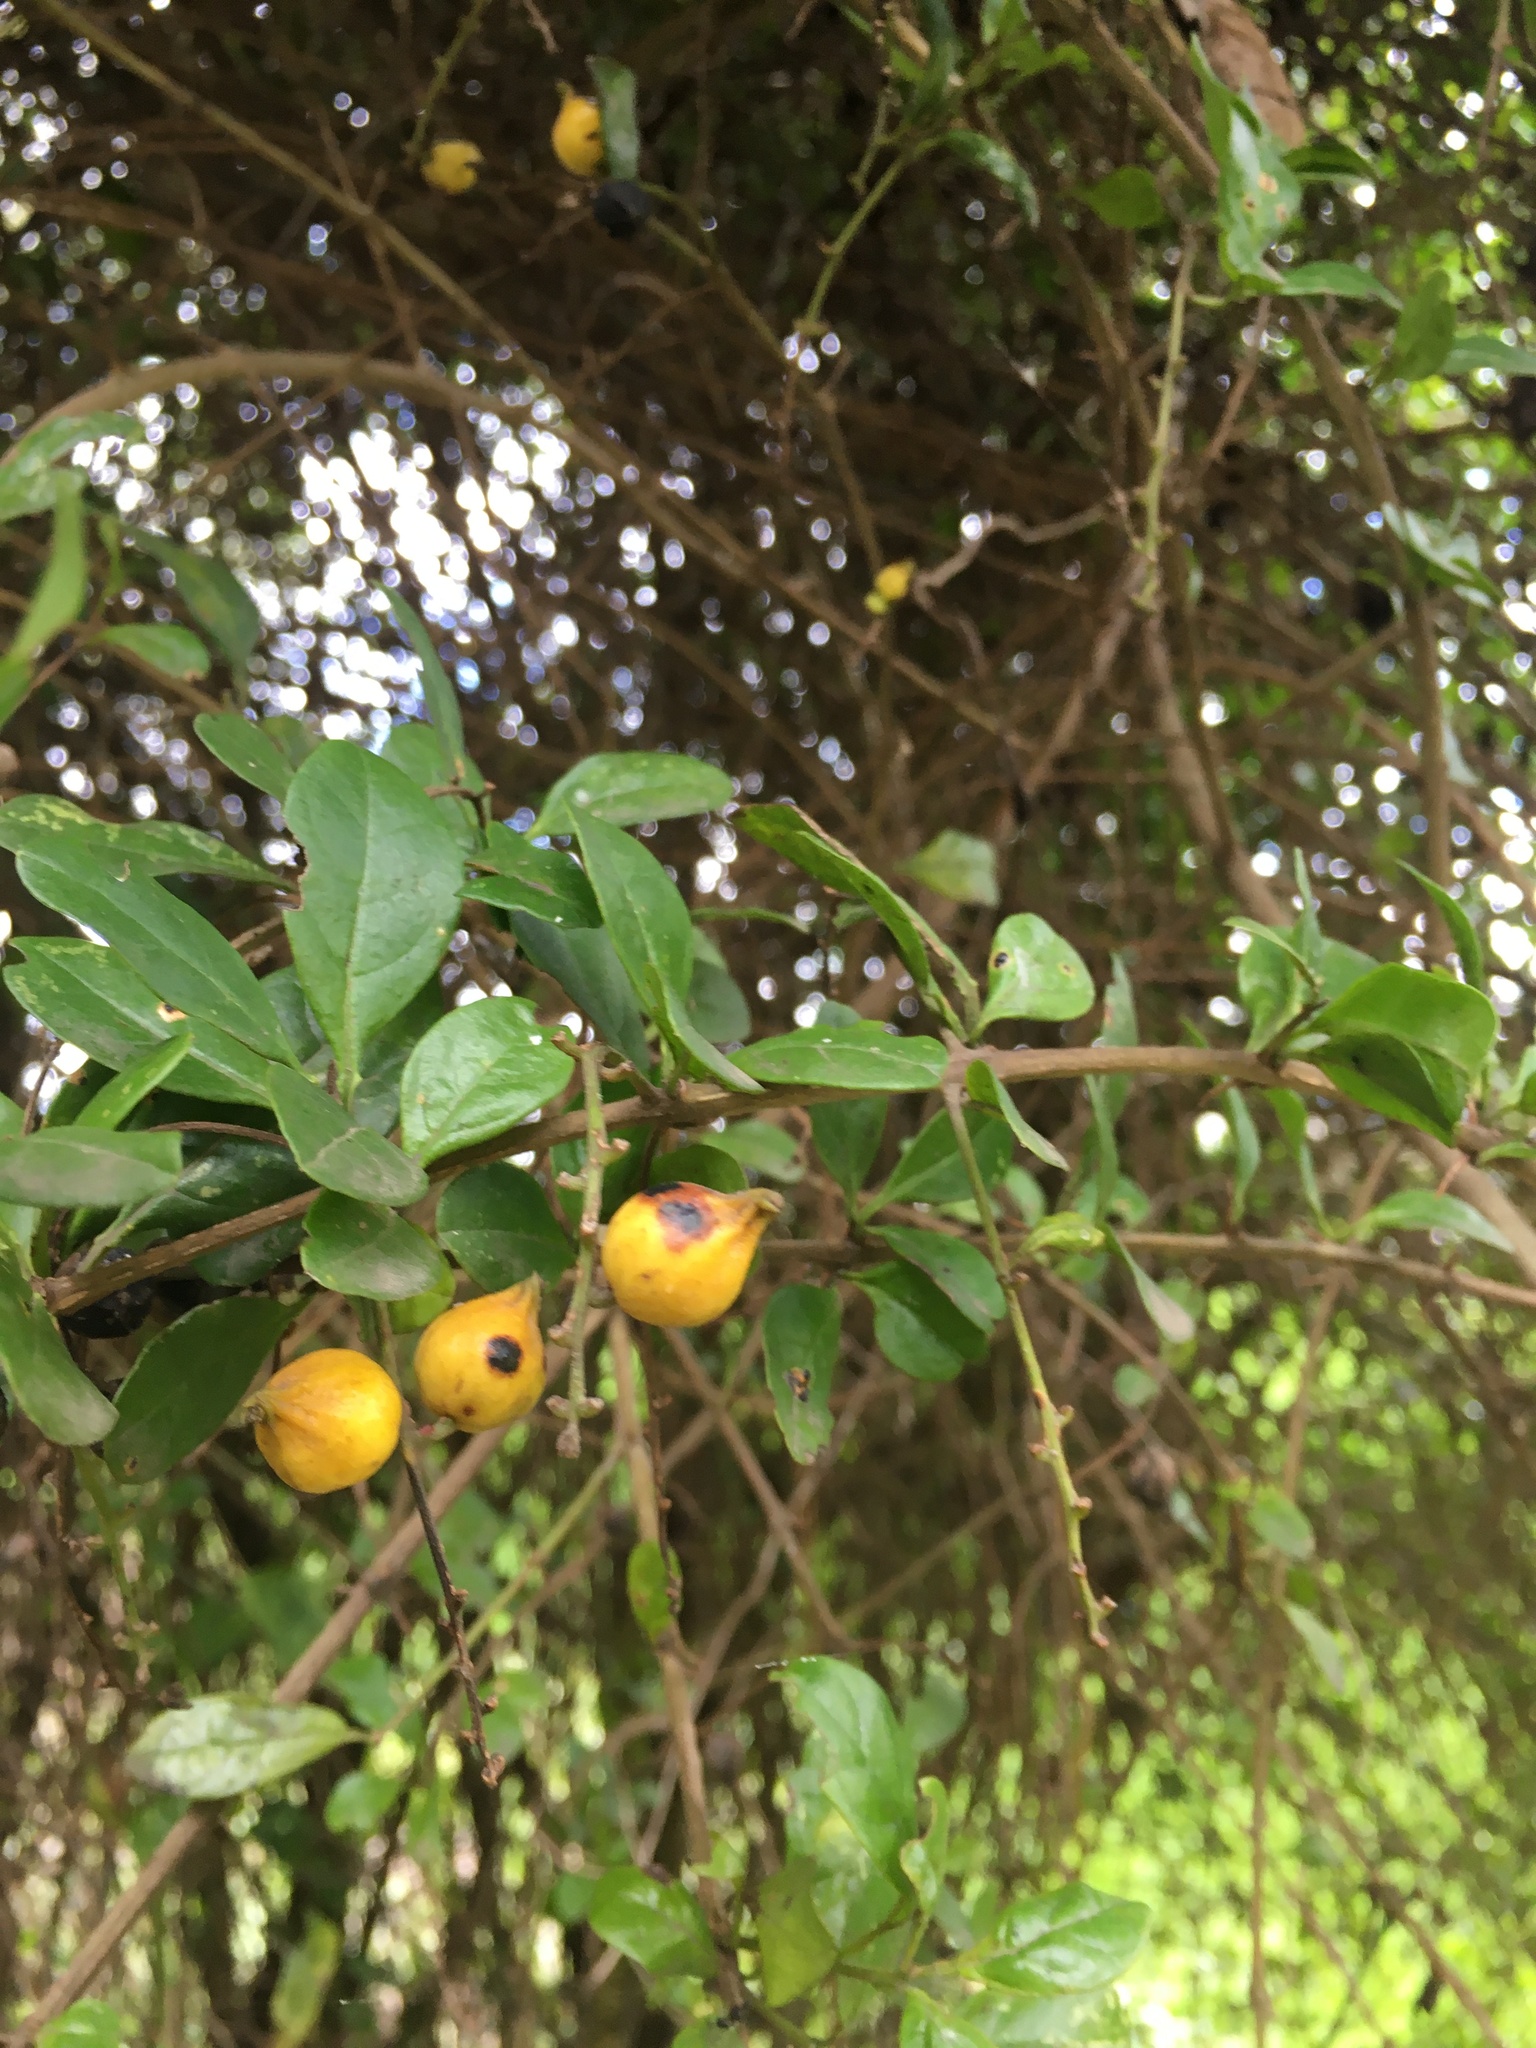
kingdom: Plantae
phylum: Tracheophyta
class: Magnoliopsida
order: Lamiales
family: Verbenaceae
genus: Duranta
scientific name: Duranta mutisii
